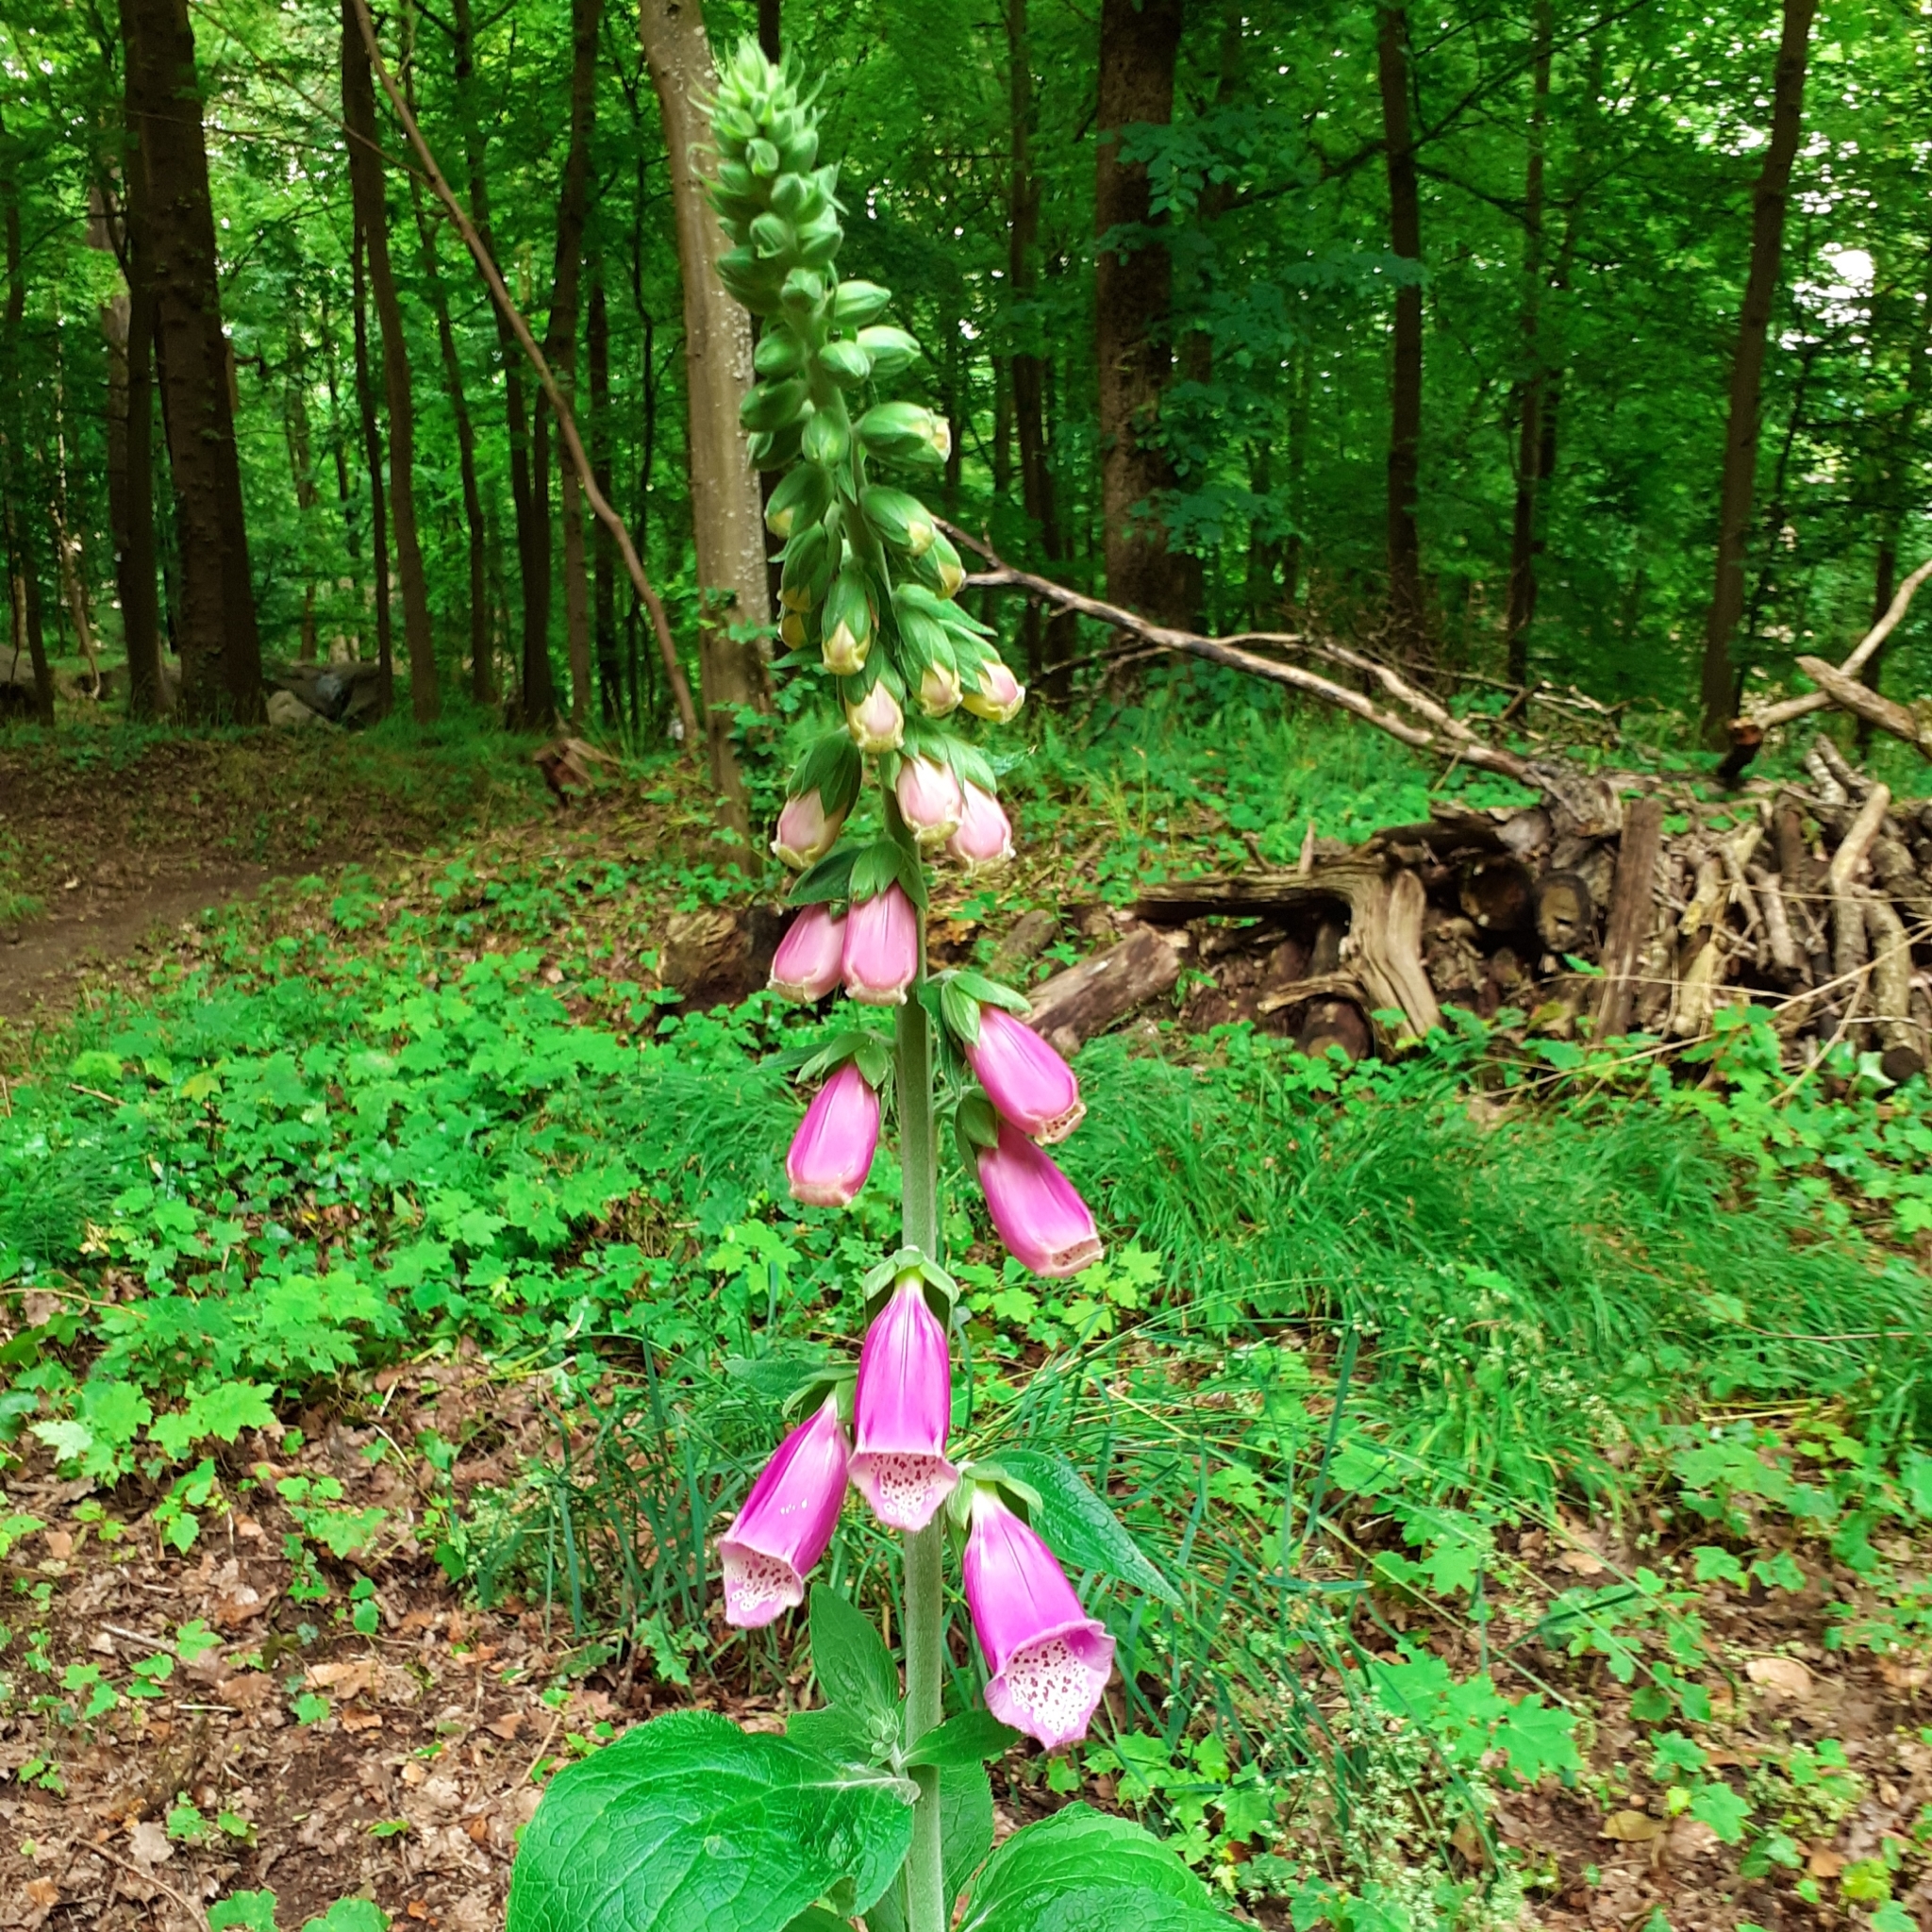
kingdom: Plantae
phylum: Tracheophyta
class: Magnoliopsida
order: Lamiales
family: Plantaginaceae
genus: Digitalis
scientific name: Digitalis purpurea
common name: Foxglove
